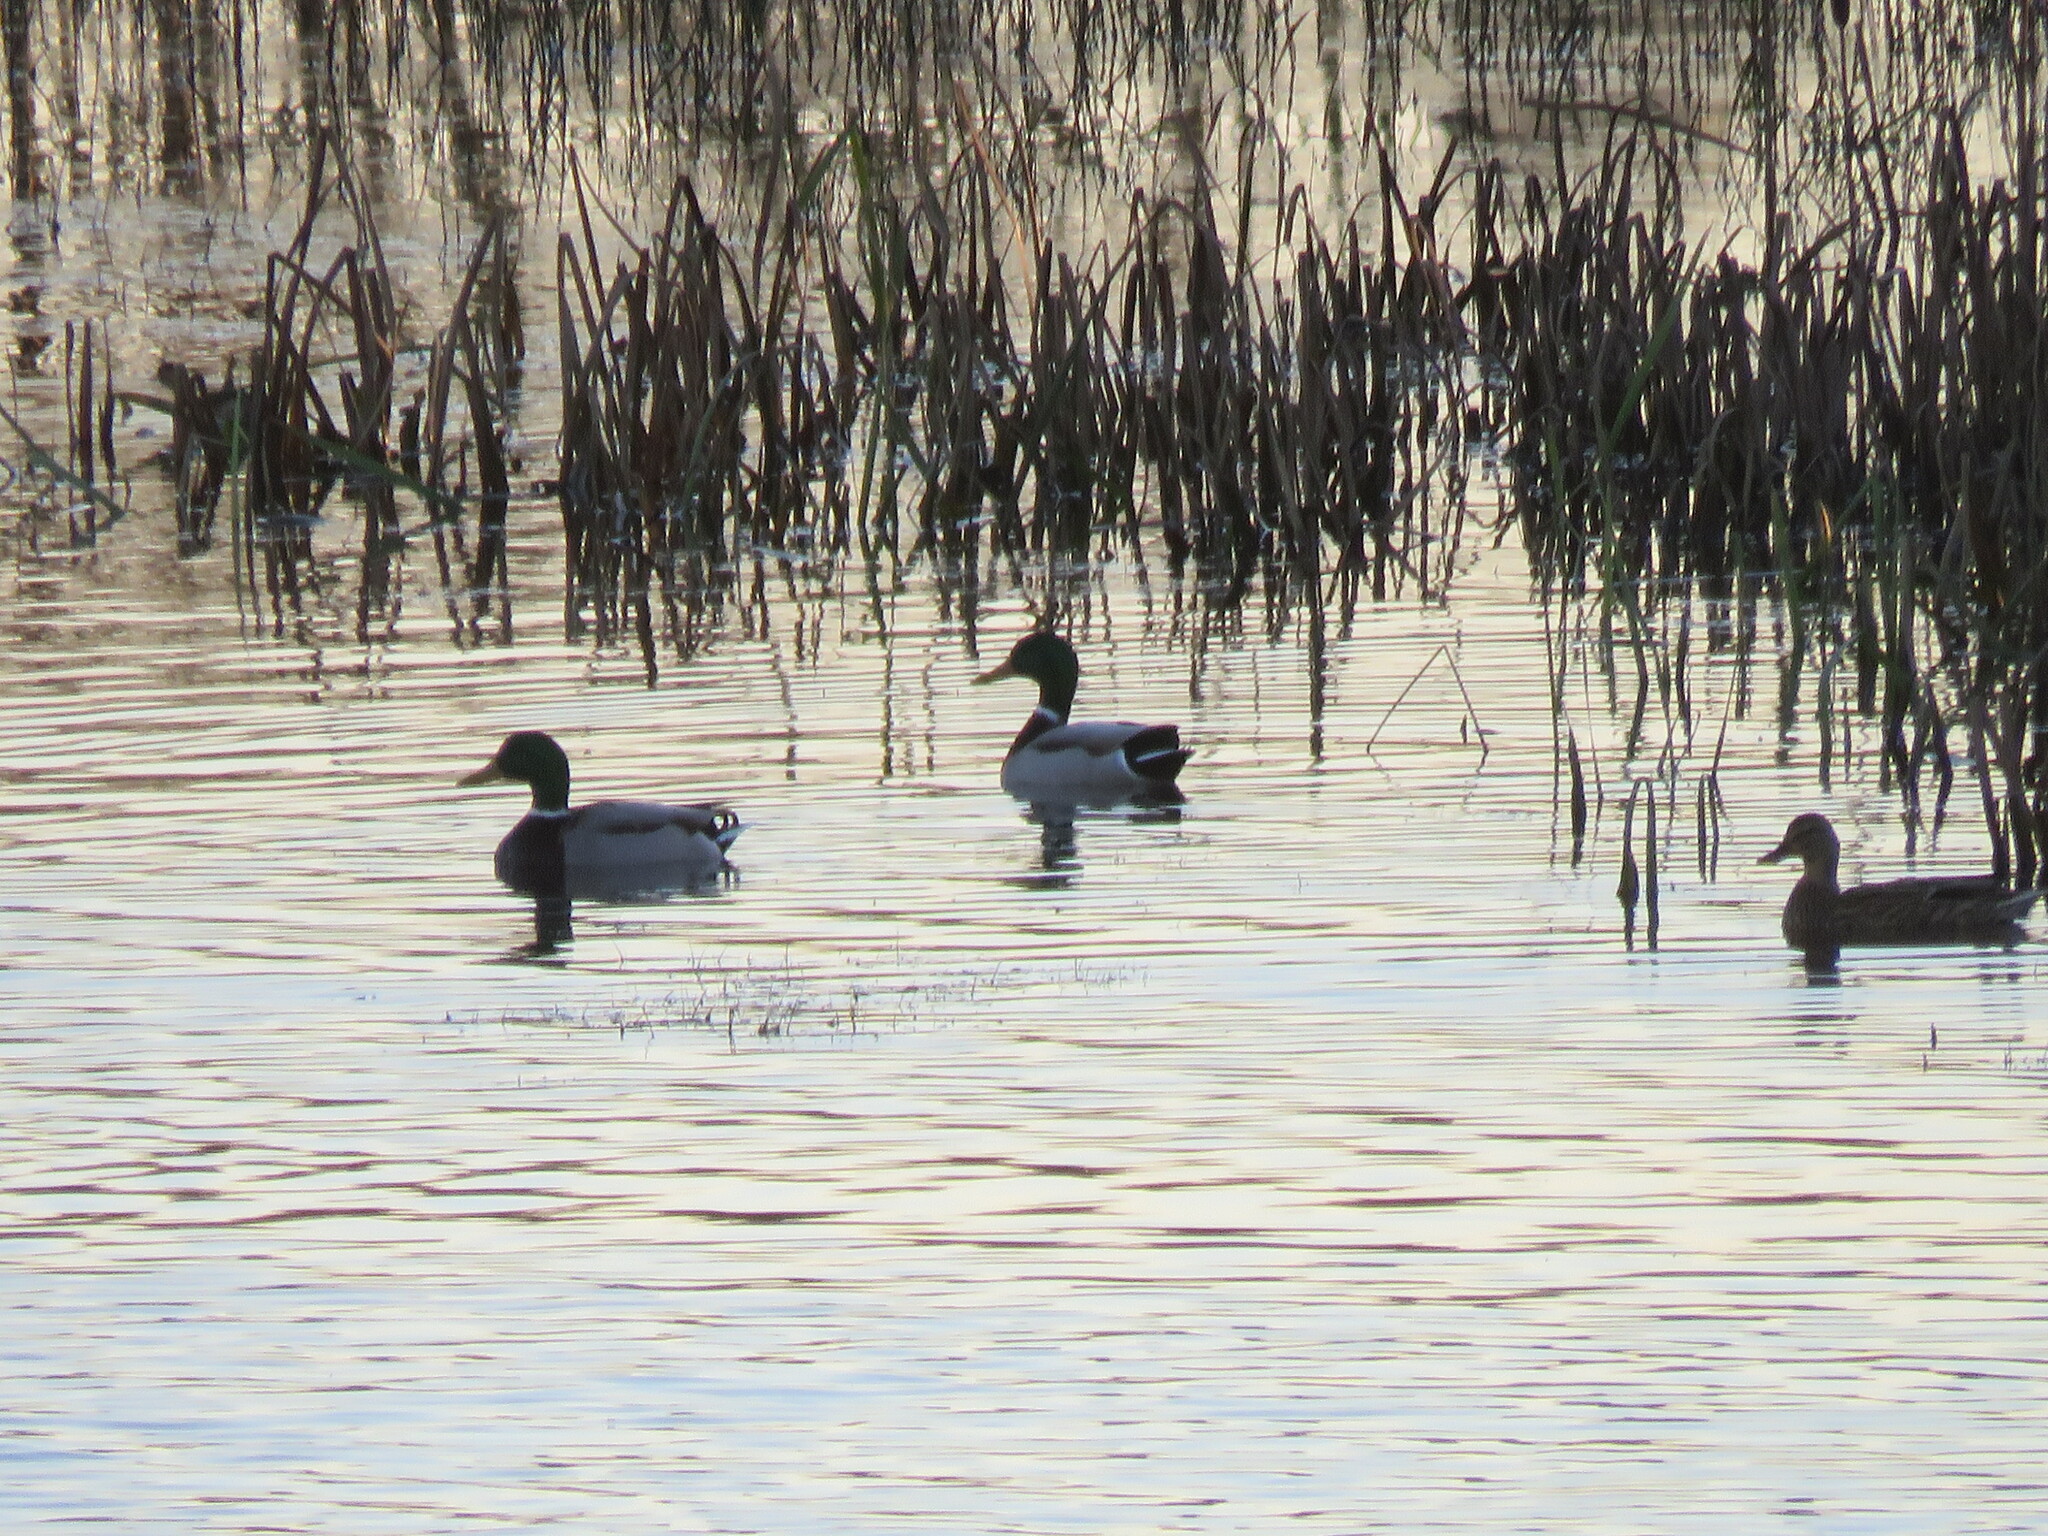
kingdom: Animalia
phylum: Chordata
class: Aves
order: Anseriformes
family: Anatidae
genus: Anas
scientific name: Anas platyrhynchos
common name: Mallard
